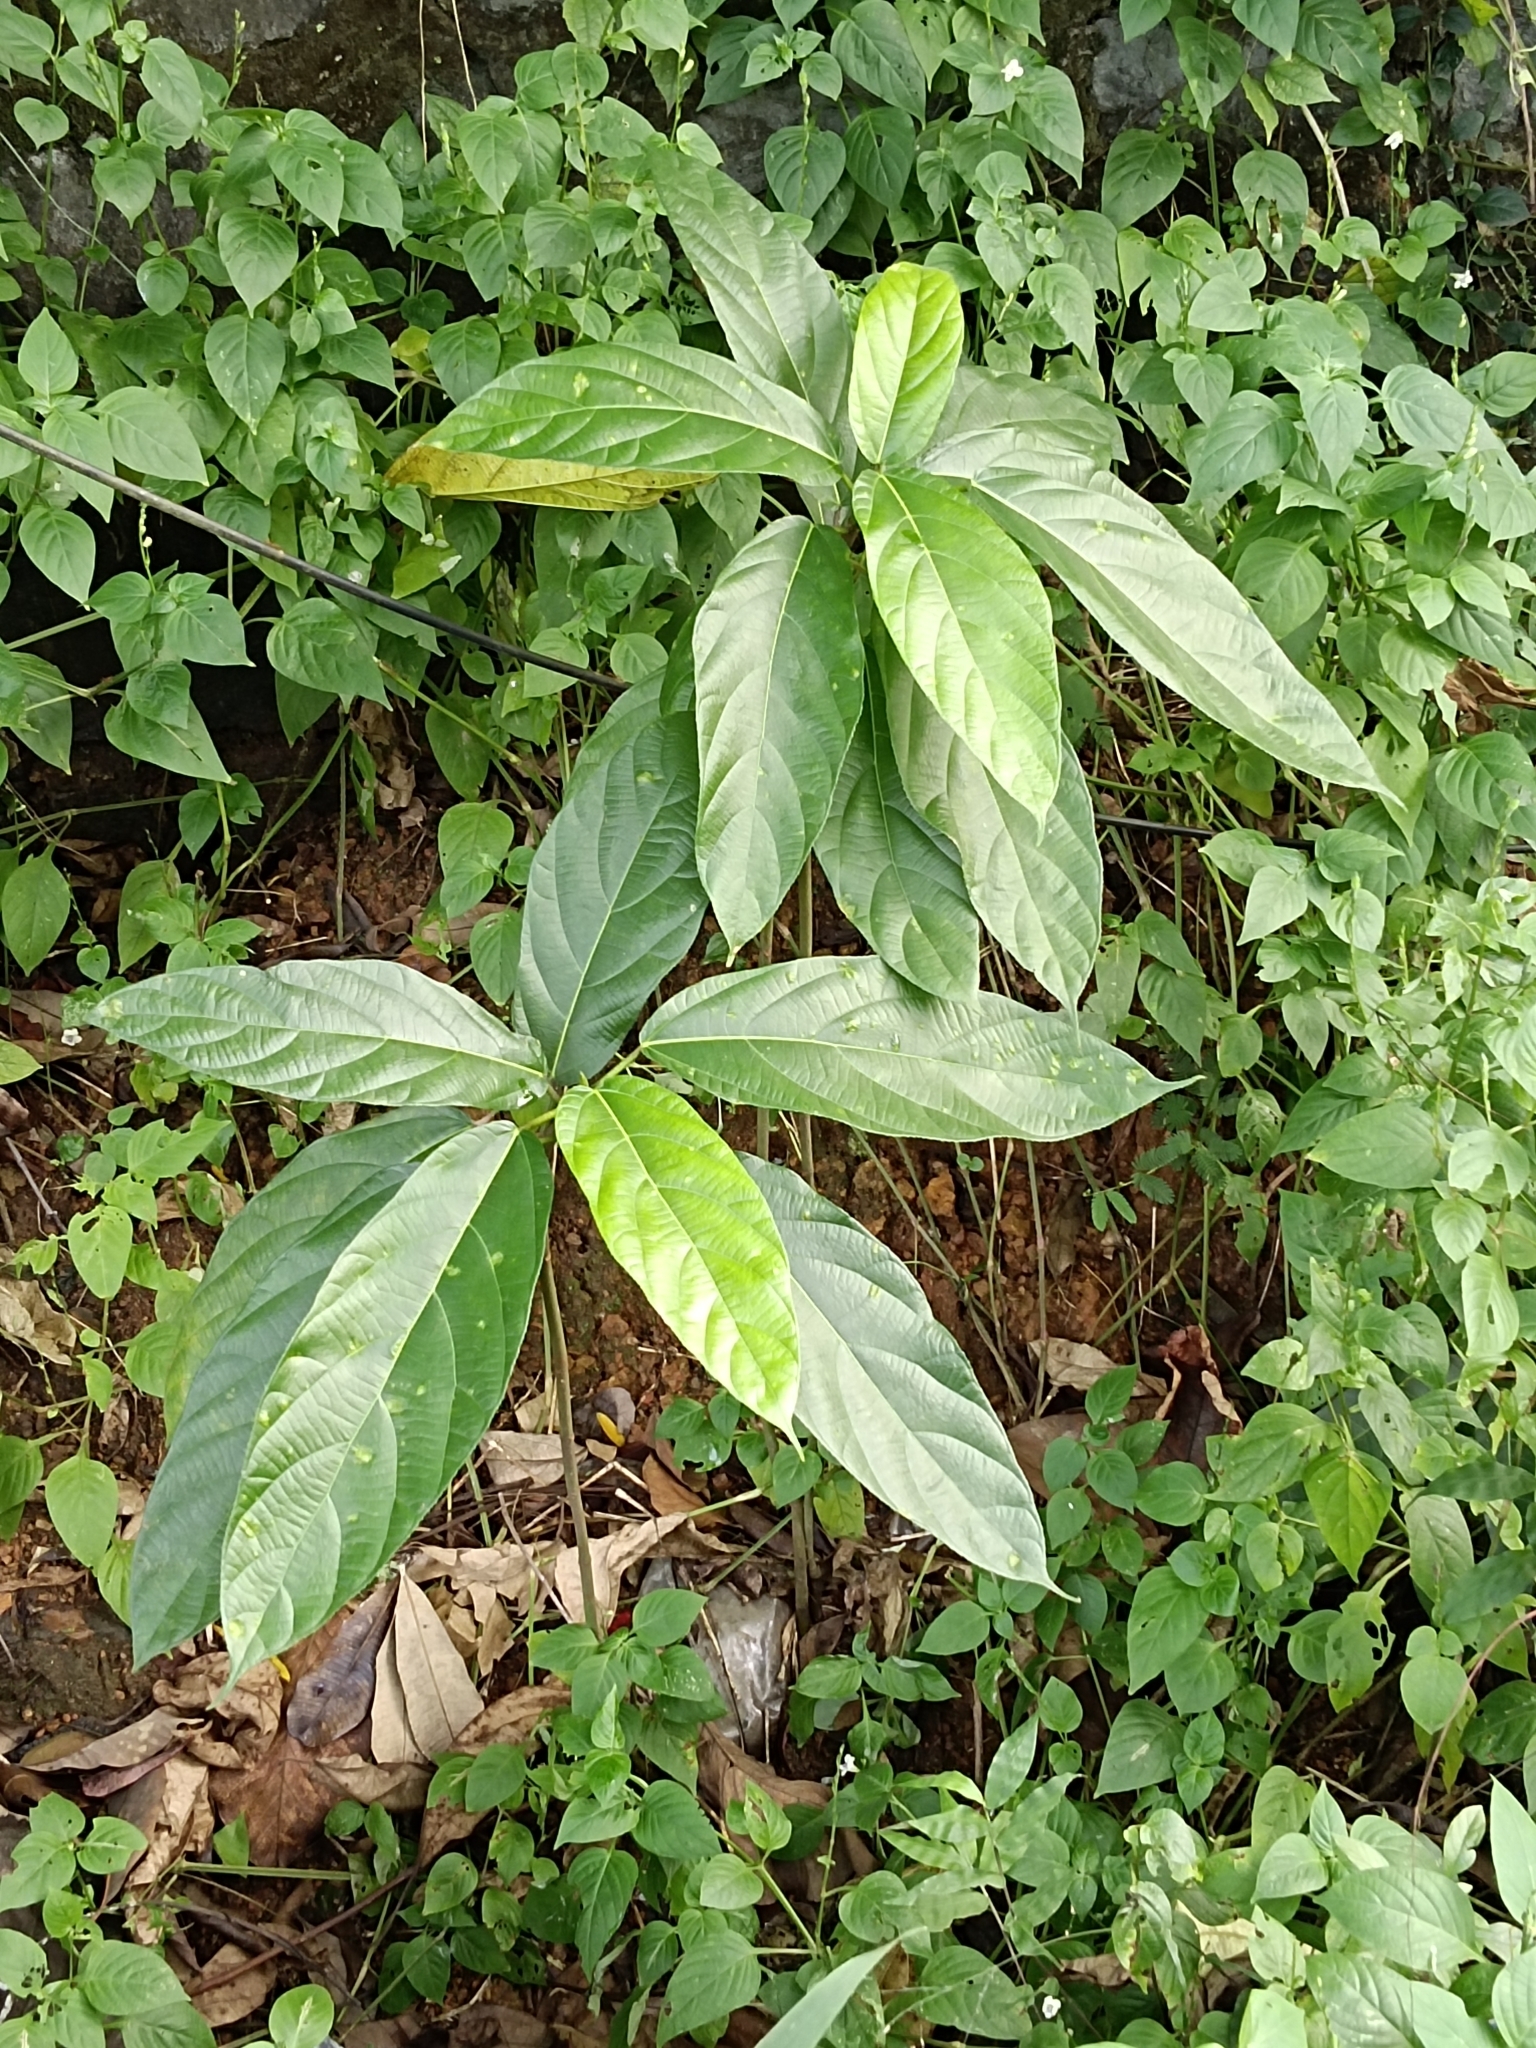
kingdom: Plantae
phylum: Tracheophyta
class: Magnoliopsida
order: Rosales
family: Moraceae
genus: Ficus
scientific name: Ficus hispida
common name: Hairy fig
